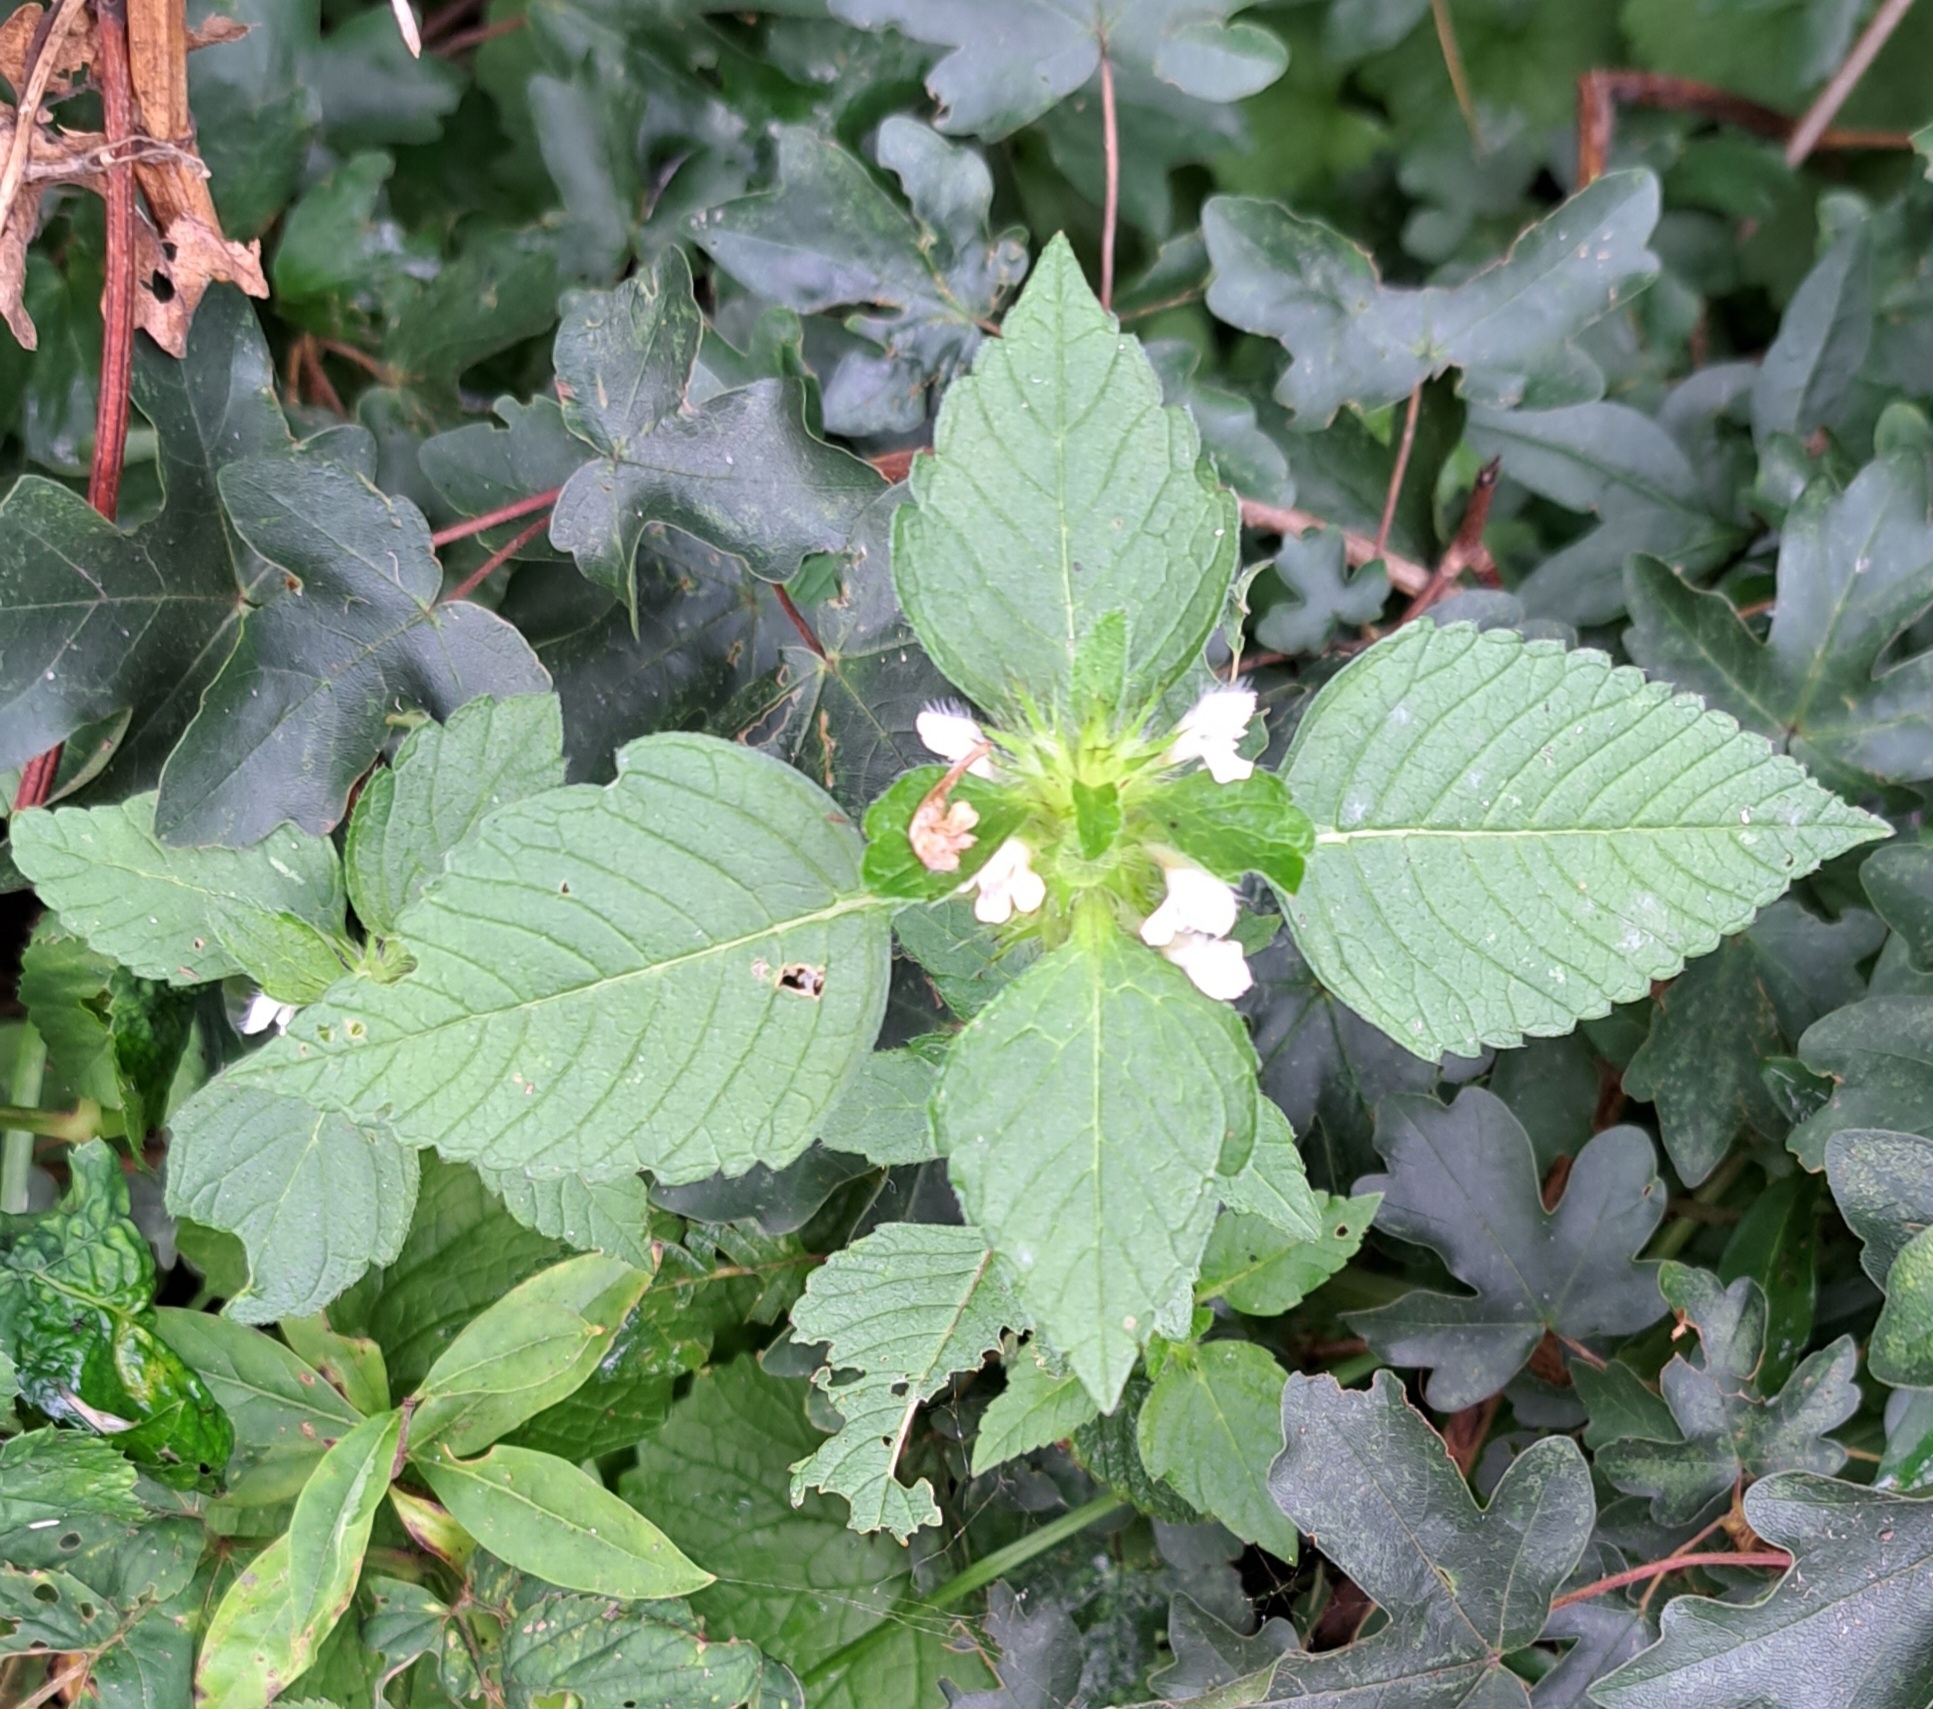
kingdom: Plantae
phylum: Tracheophyta
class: Magnoliopsida
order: Lamiales
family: Lamiaceae
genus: Galeopsis
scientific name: Galeopsis tetrahit
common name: Common hemp-nettle
